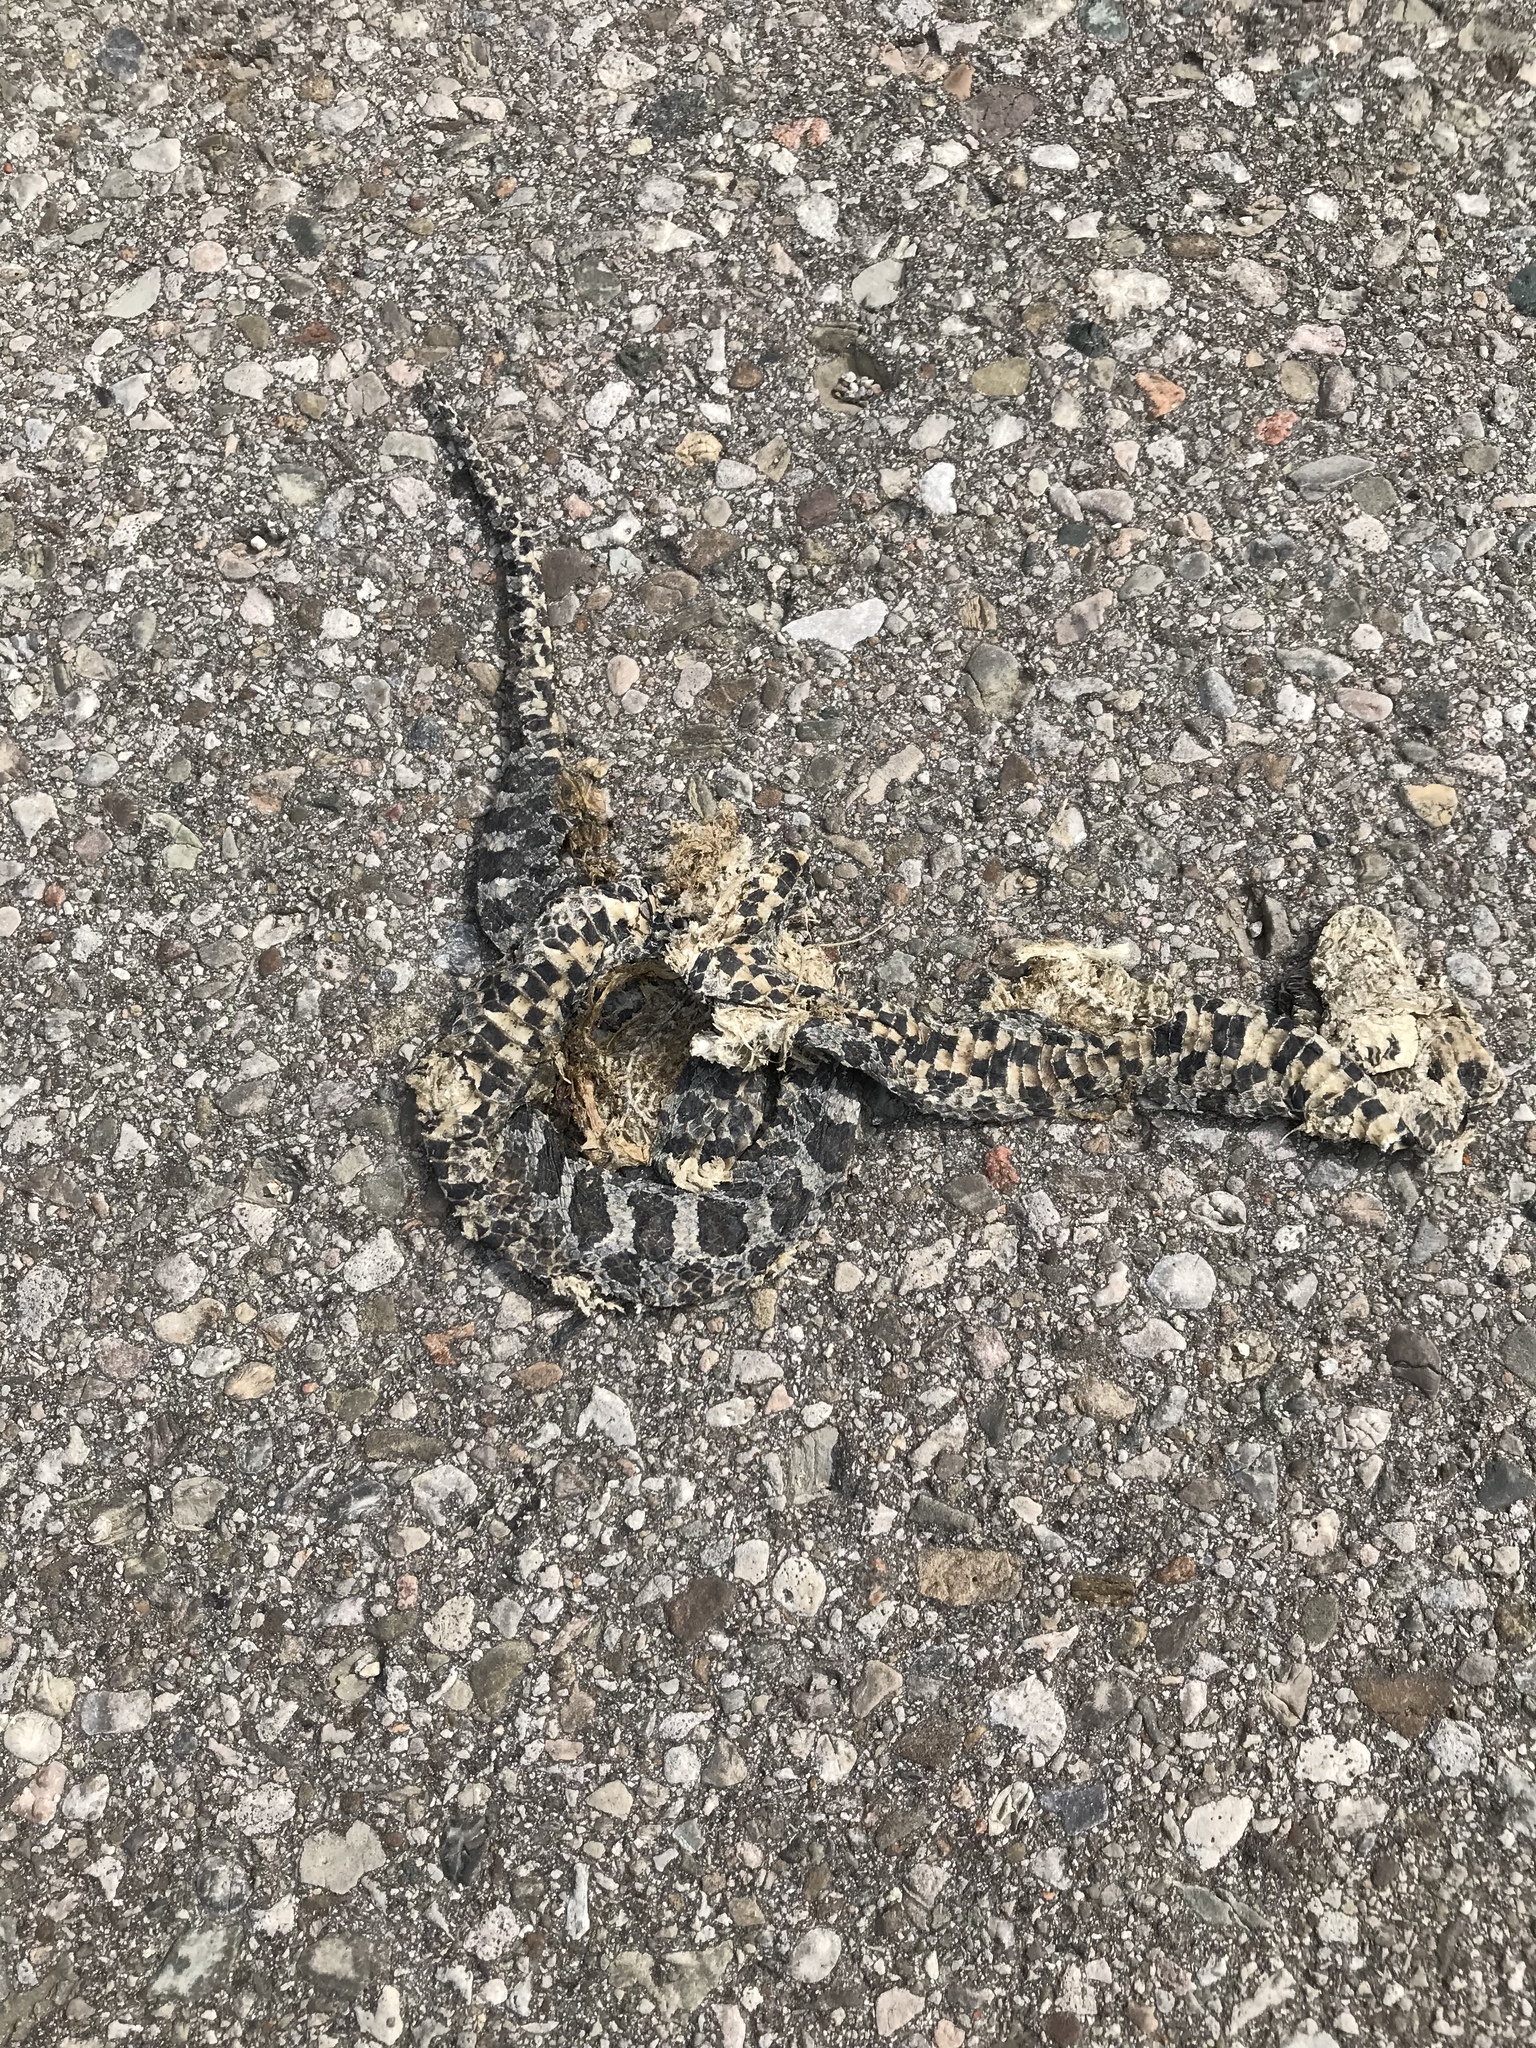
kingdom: Animalia
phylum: Chordata
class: Squamata
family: Colubridae
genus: Lampropeltis
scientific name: Lampropeltis triangulum
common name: Eastern milksnake
